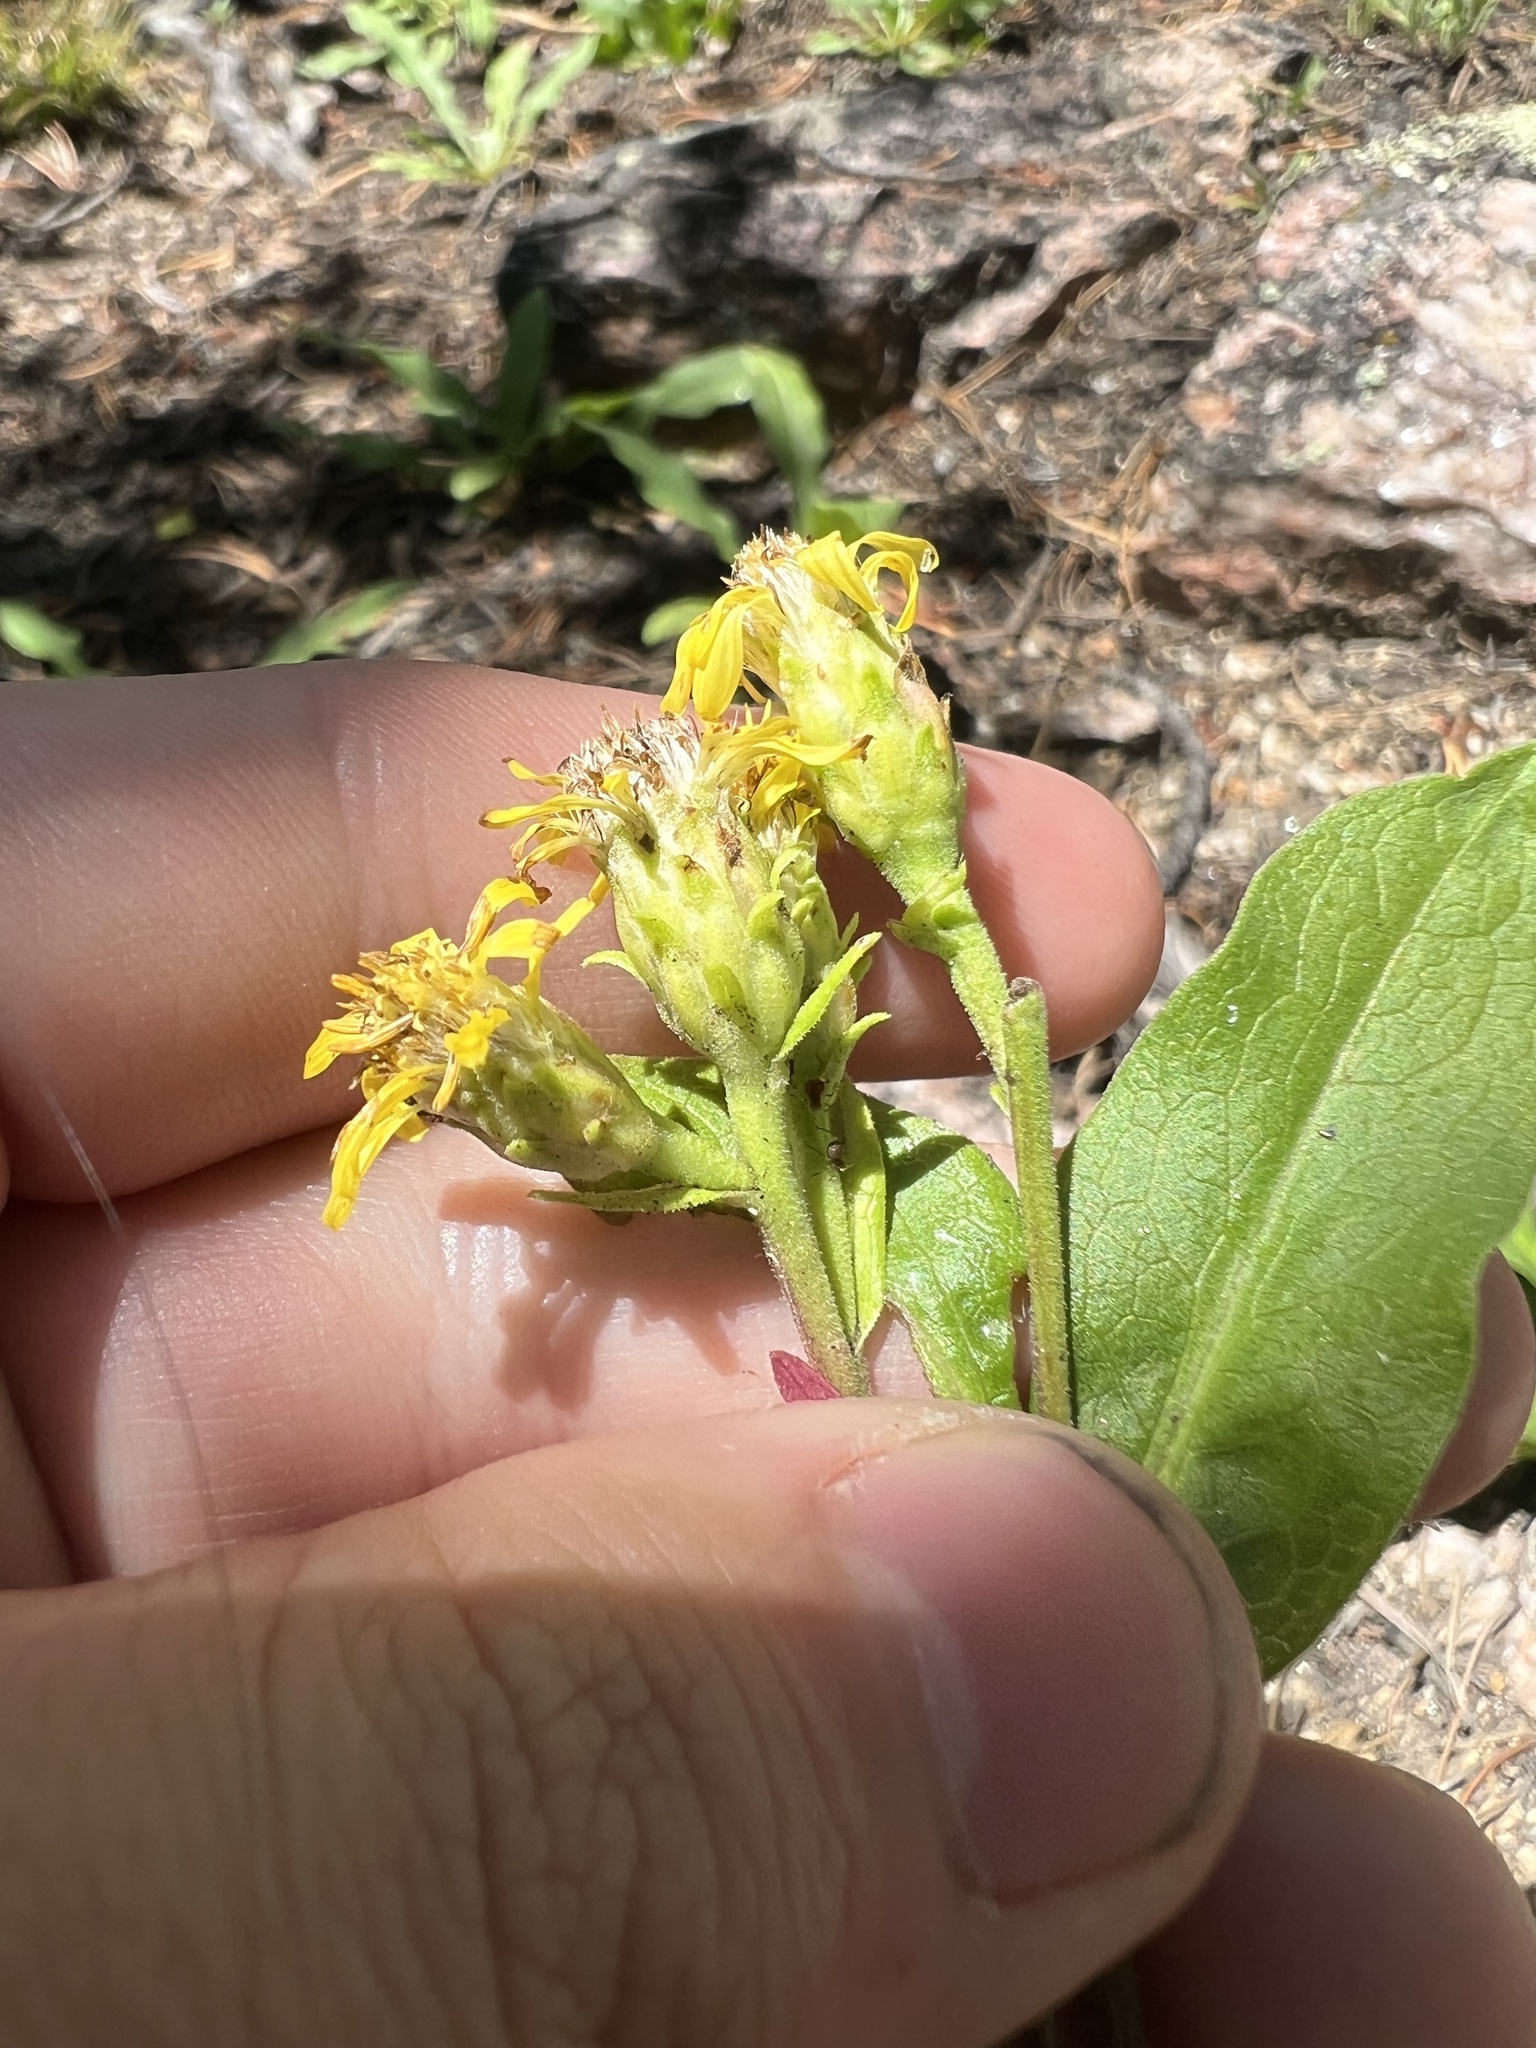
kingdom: Plantae
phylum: Tracheophyta
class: Magnoliopsida
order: Asterales
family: Asteraceae
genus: Solidago
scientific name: Solidago multiradiata
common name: Northern goldenrod
